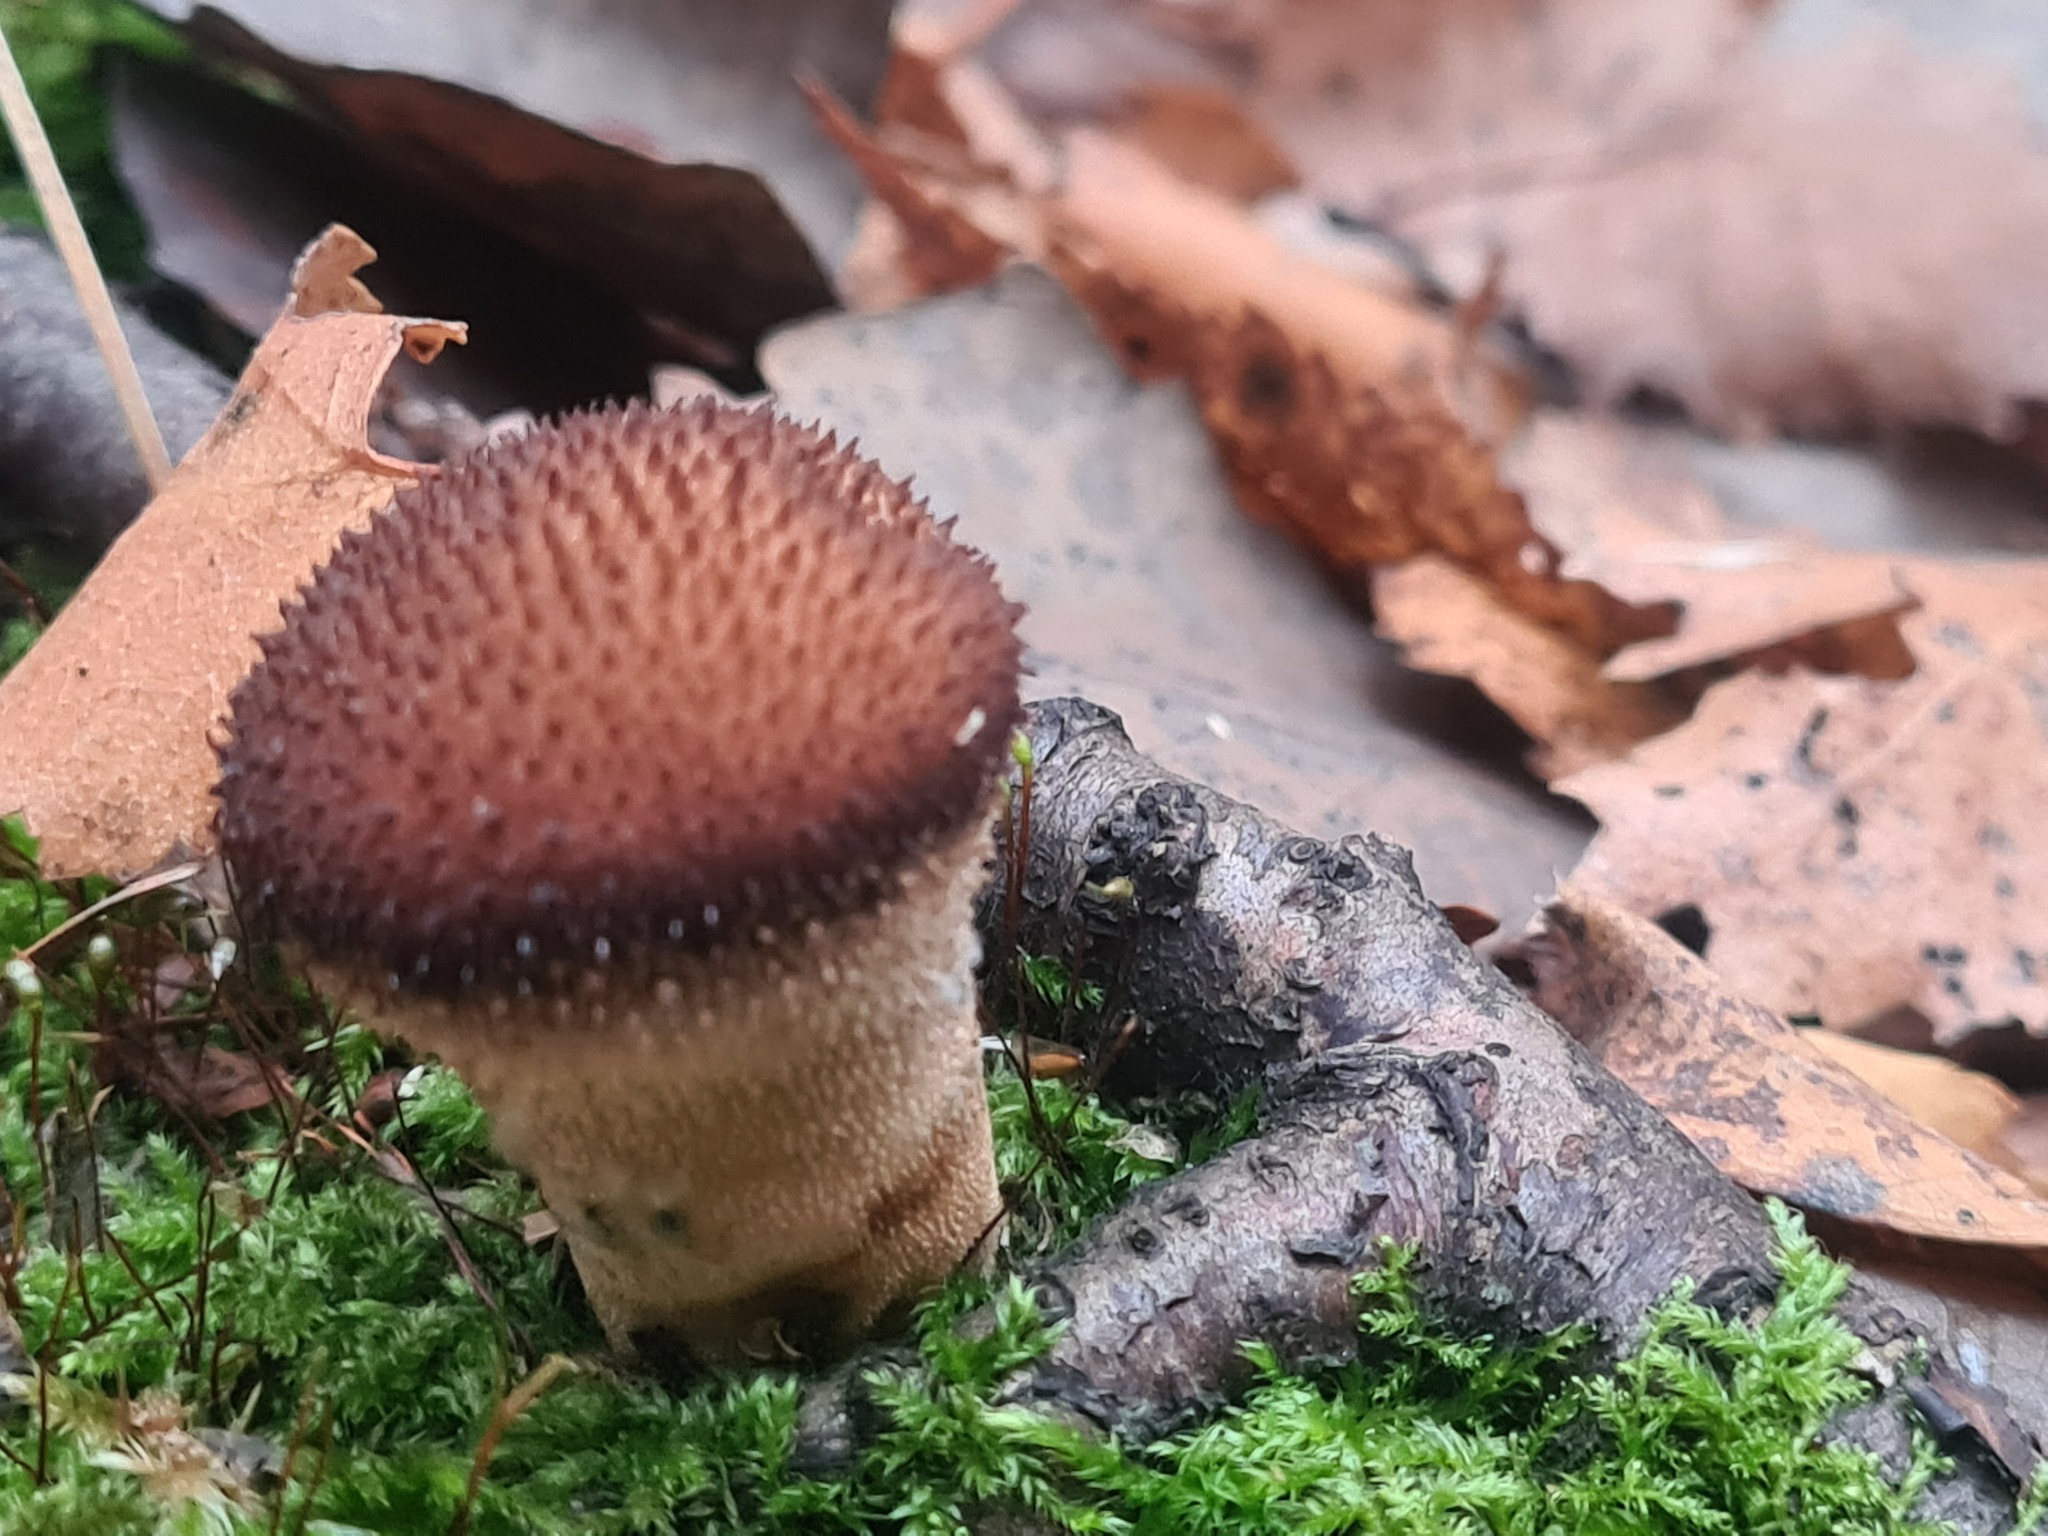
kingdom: Fungi
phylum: Basidiomycota
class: Agaricomycetes
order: Agaricales
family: Lycoperdaceae
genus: Lycoperdon
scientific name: Lycoperdon perlatum
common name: Common puffball
